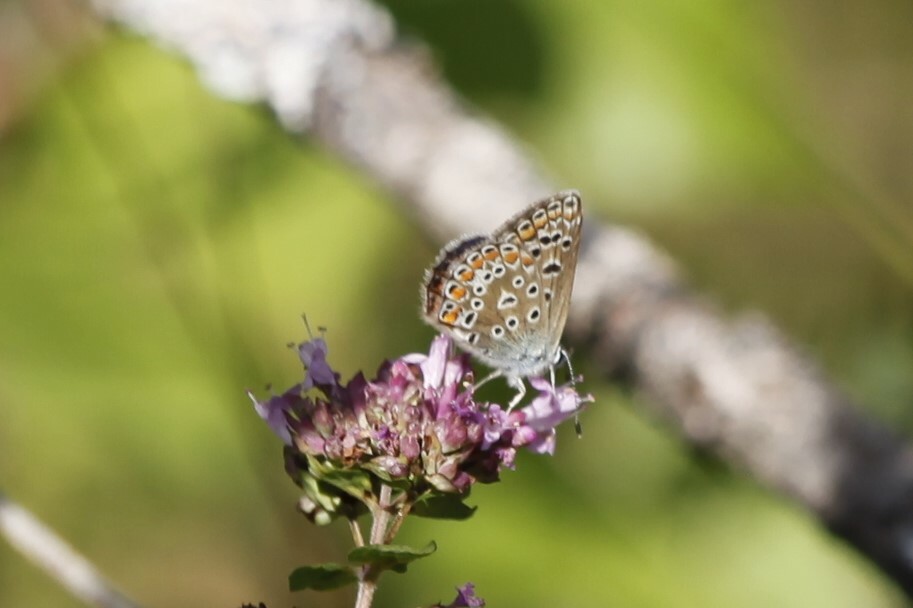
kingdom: Animalia
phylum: Arthropoda
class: Insecta
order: Lepidoptera
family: Lycaenidae
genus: Polyommatus
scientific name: Polyommatus icarus
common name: Common blue
